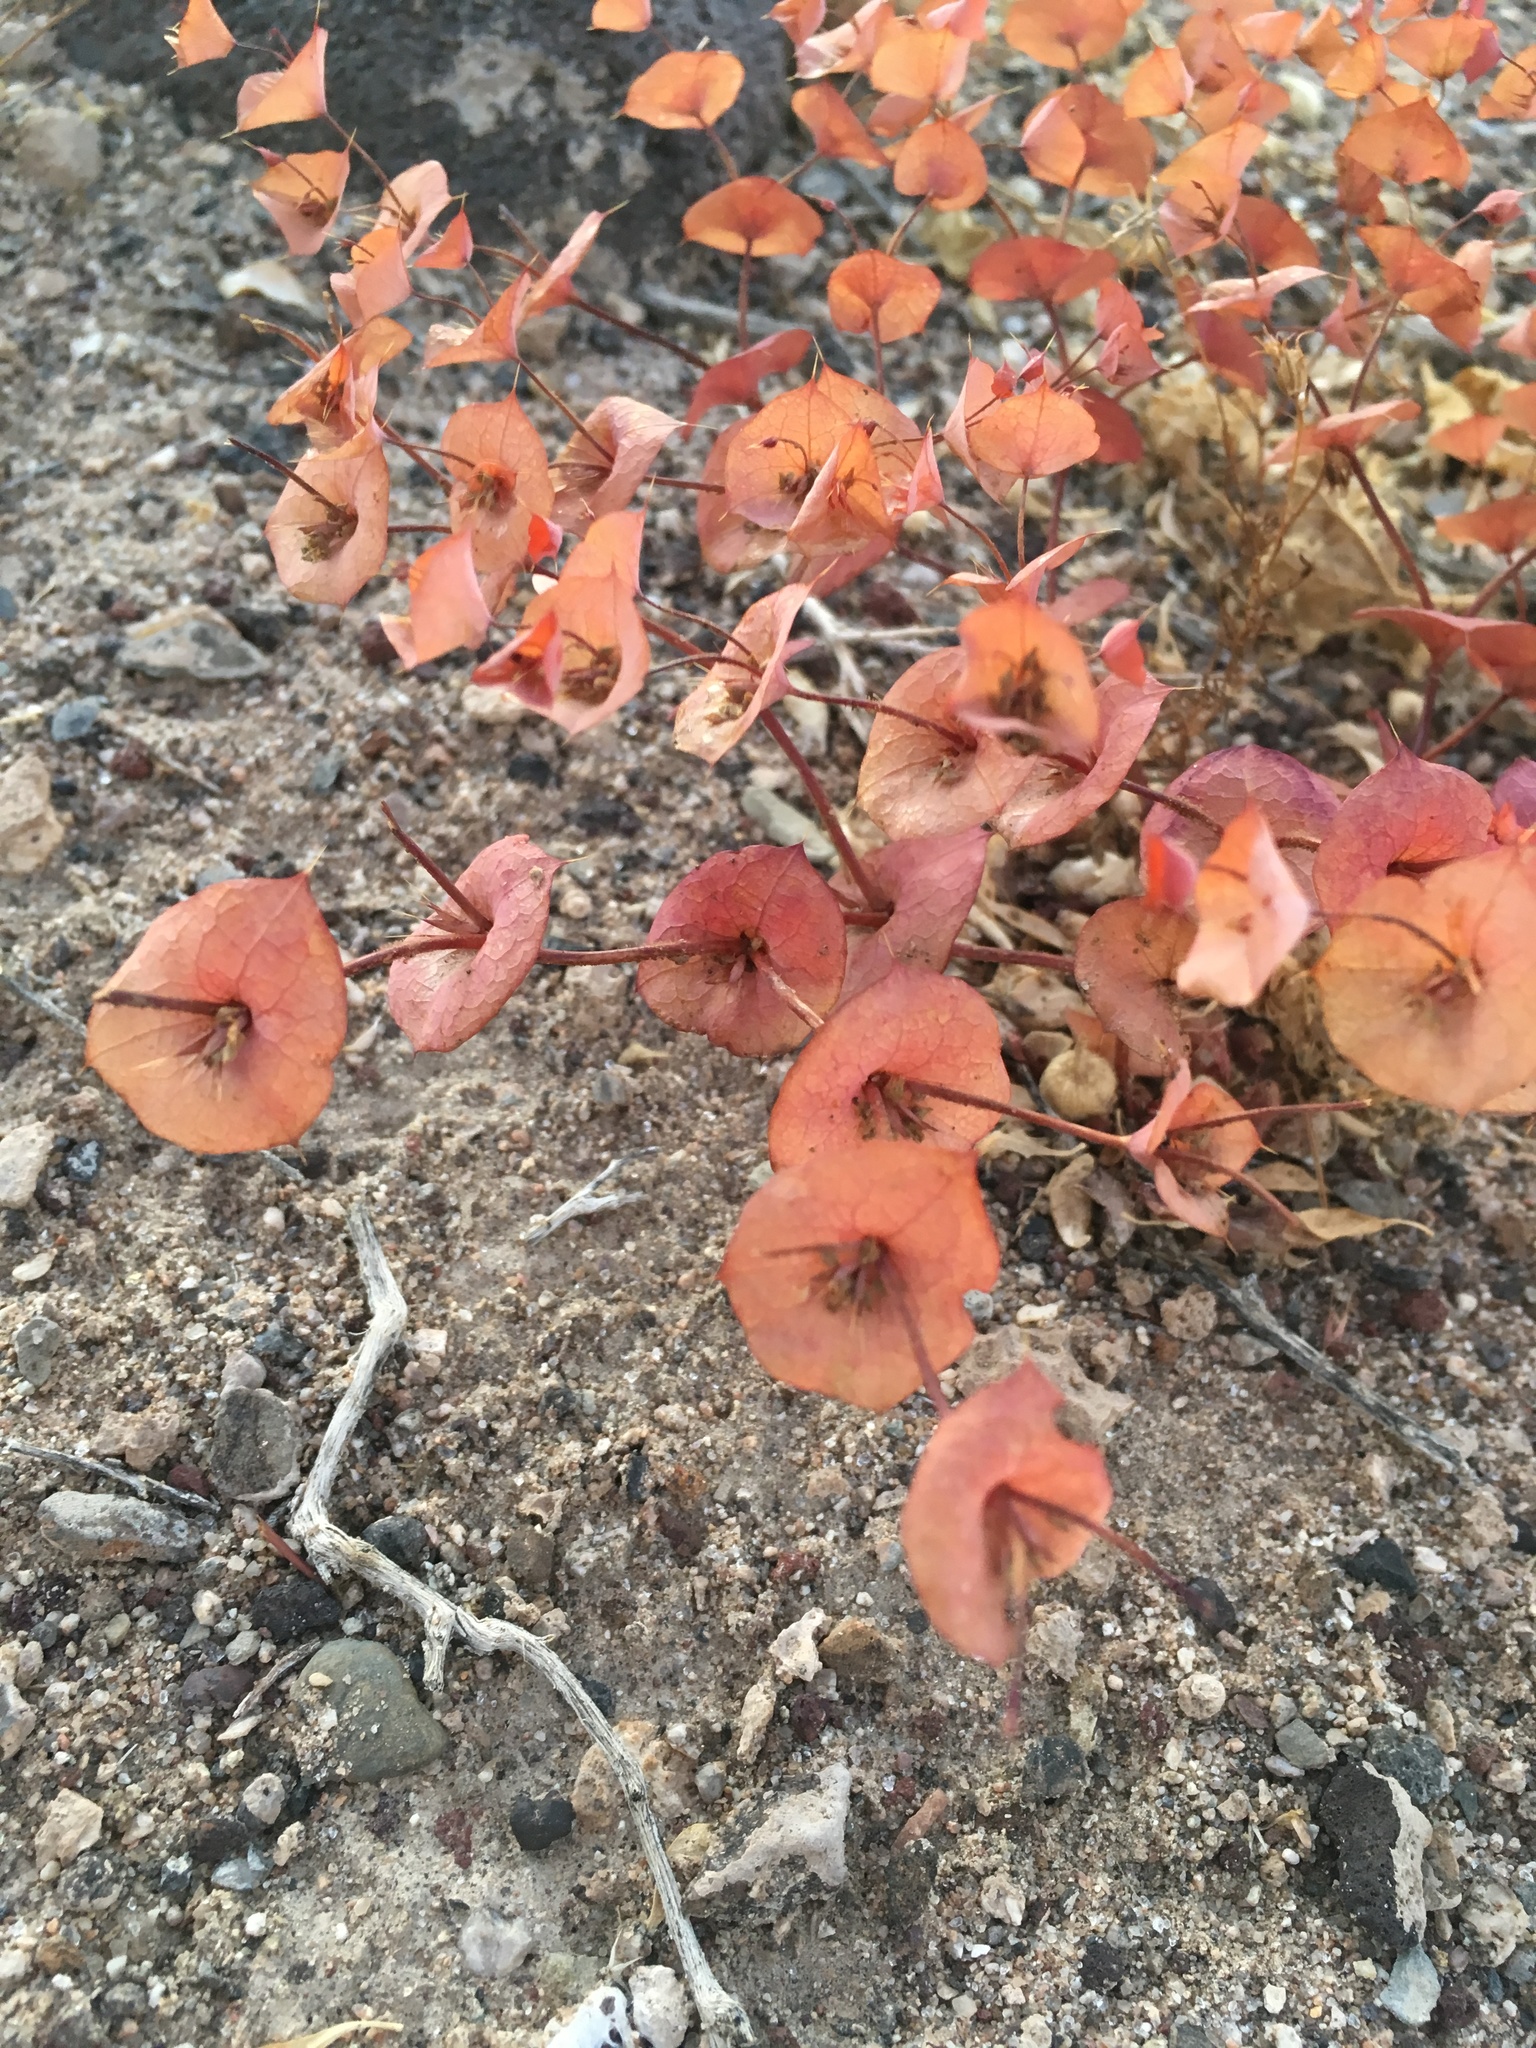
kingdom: Plantae
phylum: Tracheophyta
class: Magnoliopsida
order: Caryophyllales
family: Polygonaceae
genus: Oxytheca
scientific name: Oxytheca perfoliata
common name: Round-leaf puncturebract
